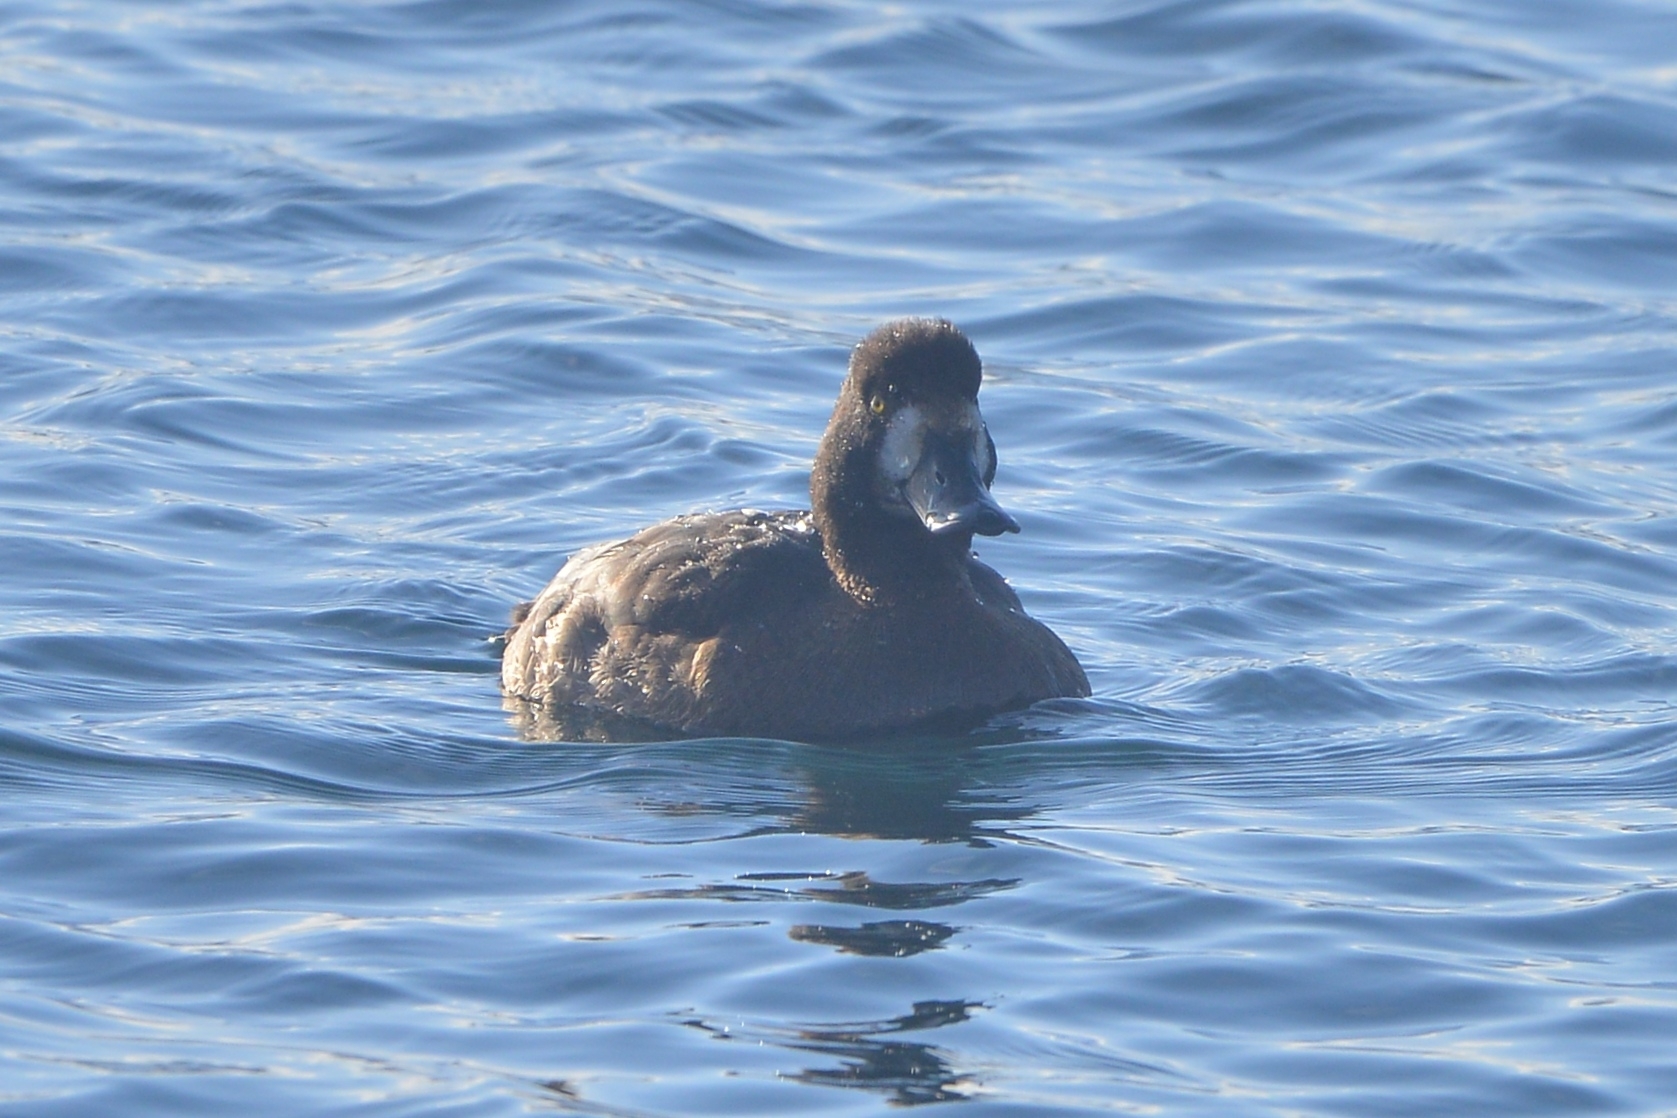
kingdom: Animalia
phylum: Chordata
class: Aves
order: Anseriformes
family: Anatidae
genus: Aythya
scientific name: Aythya marila
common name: Greater scaup
